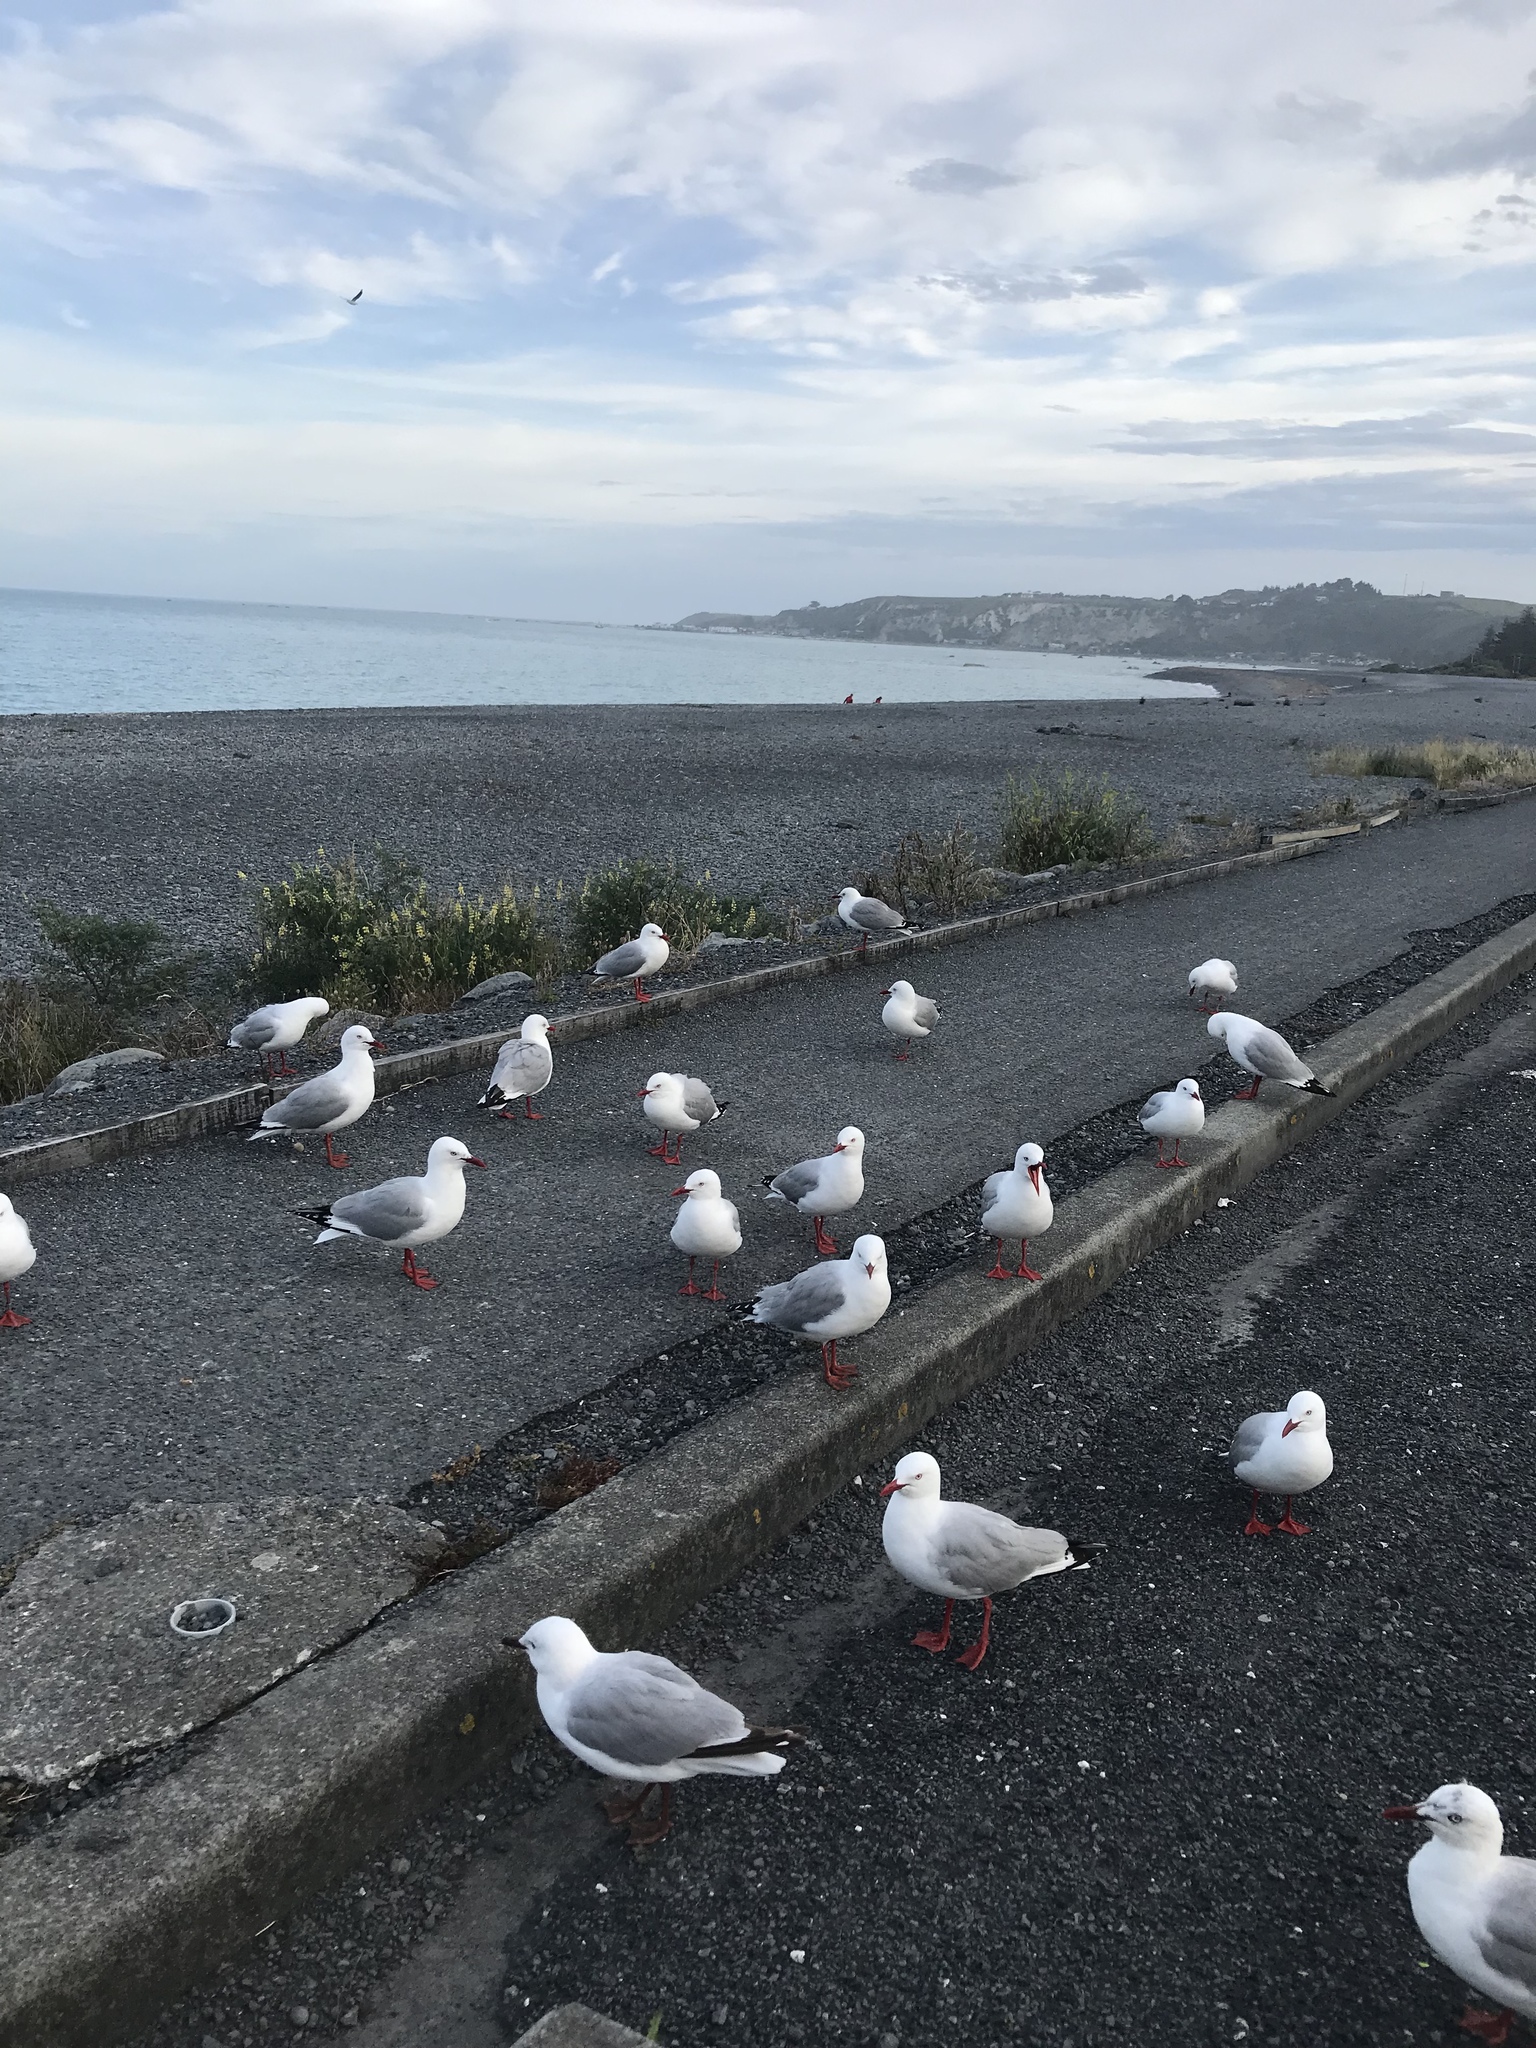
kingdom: Animalia
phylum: Chordata
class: Aves
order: Charadriiformes
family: Laridae
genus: Chroicocephalus
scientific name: Chroicocephalus novaehollandiae
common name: Silver gull
